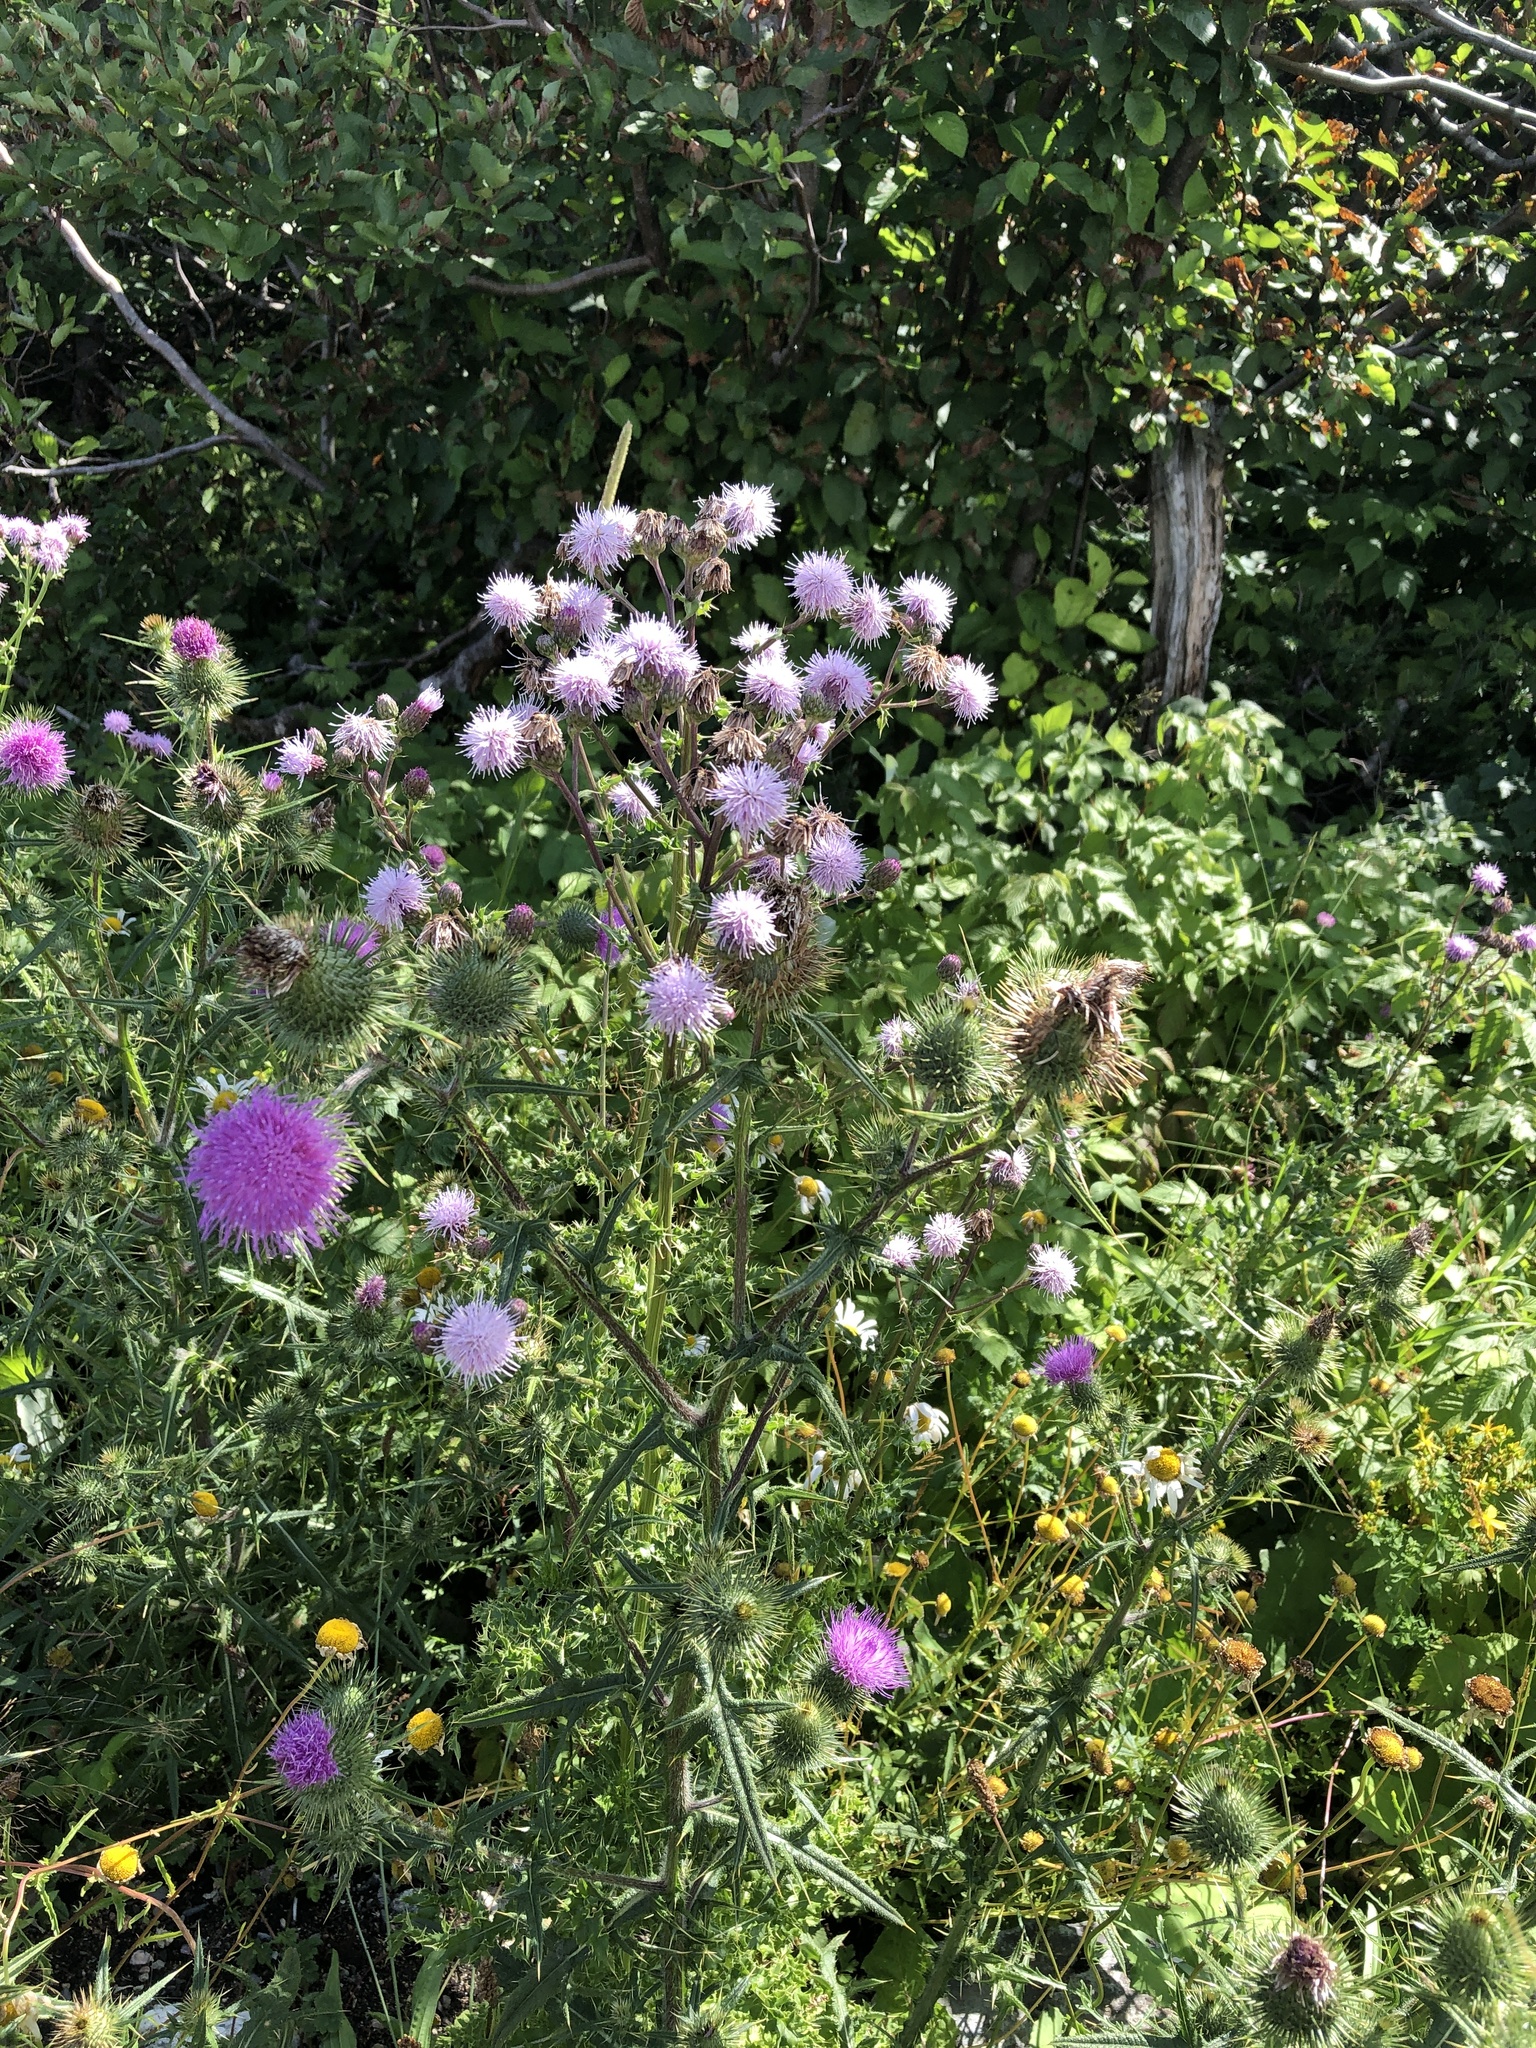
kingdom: Plantae
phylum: Tracheophyta
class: Magnoliopsida
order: Asterales
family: Asteraceae
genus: Cirsium
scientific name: Cirsium vulgare
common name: Bull thistle
